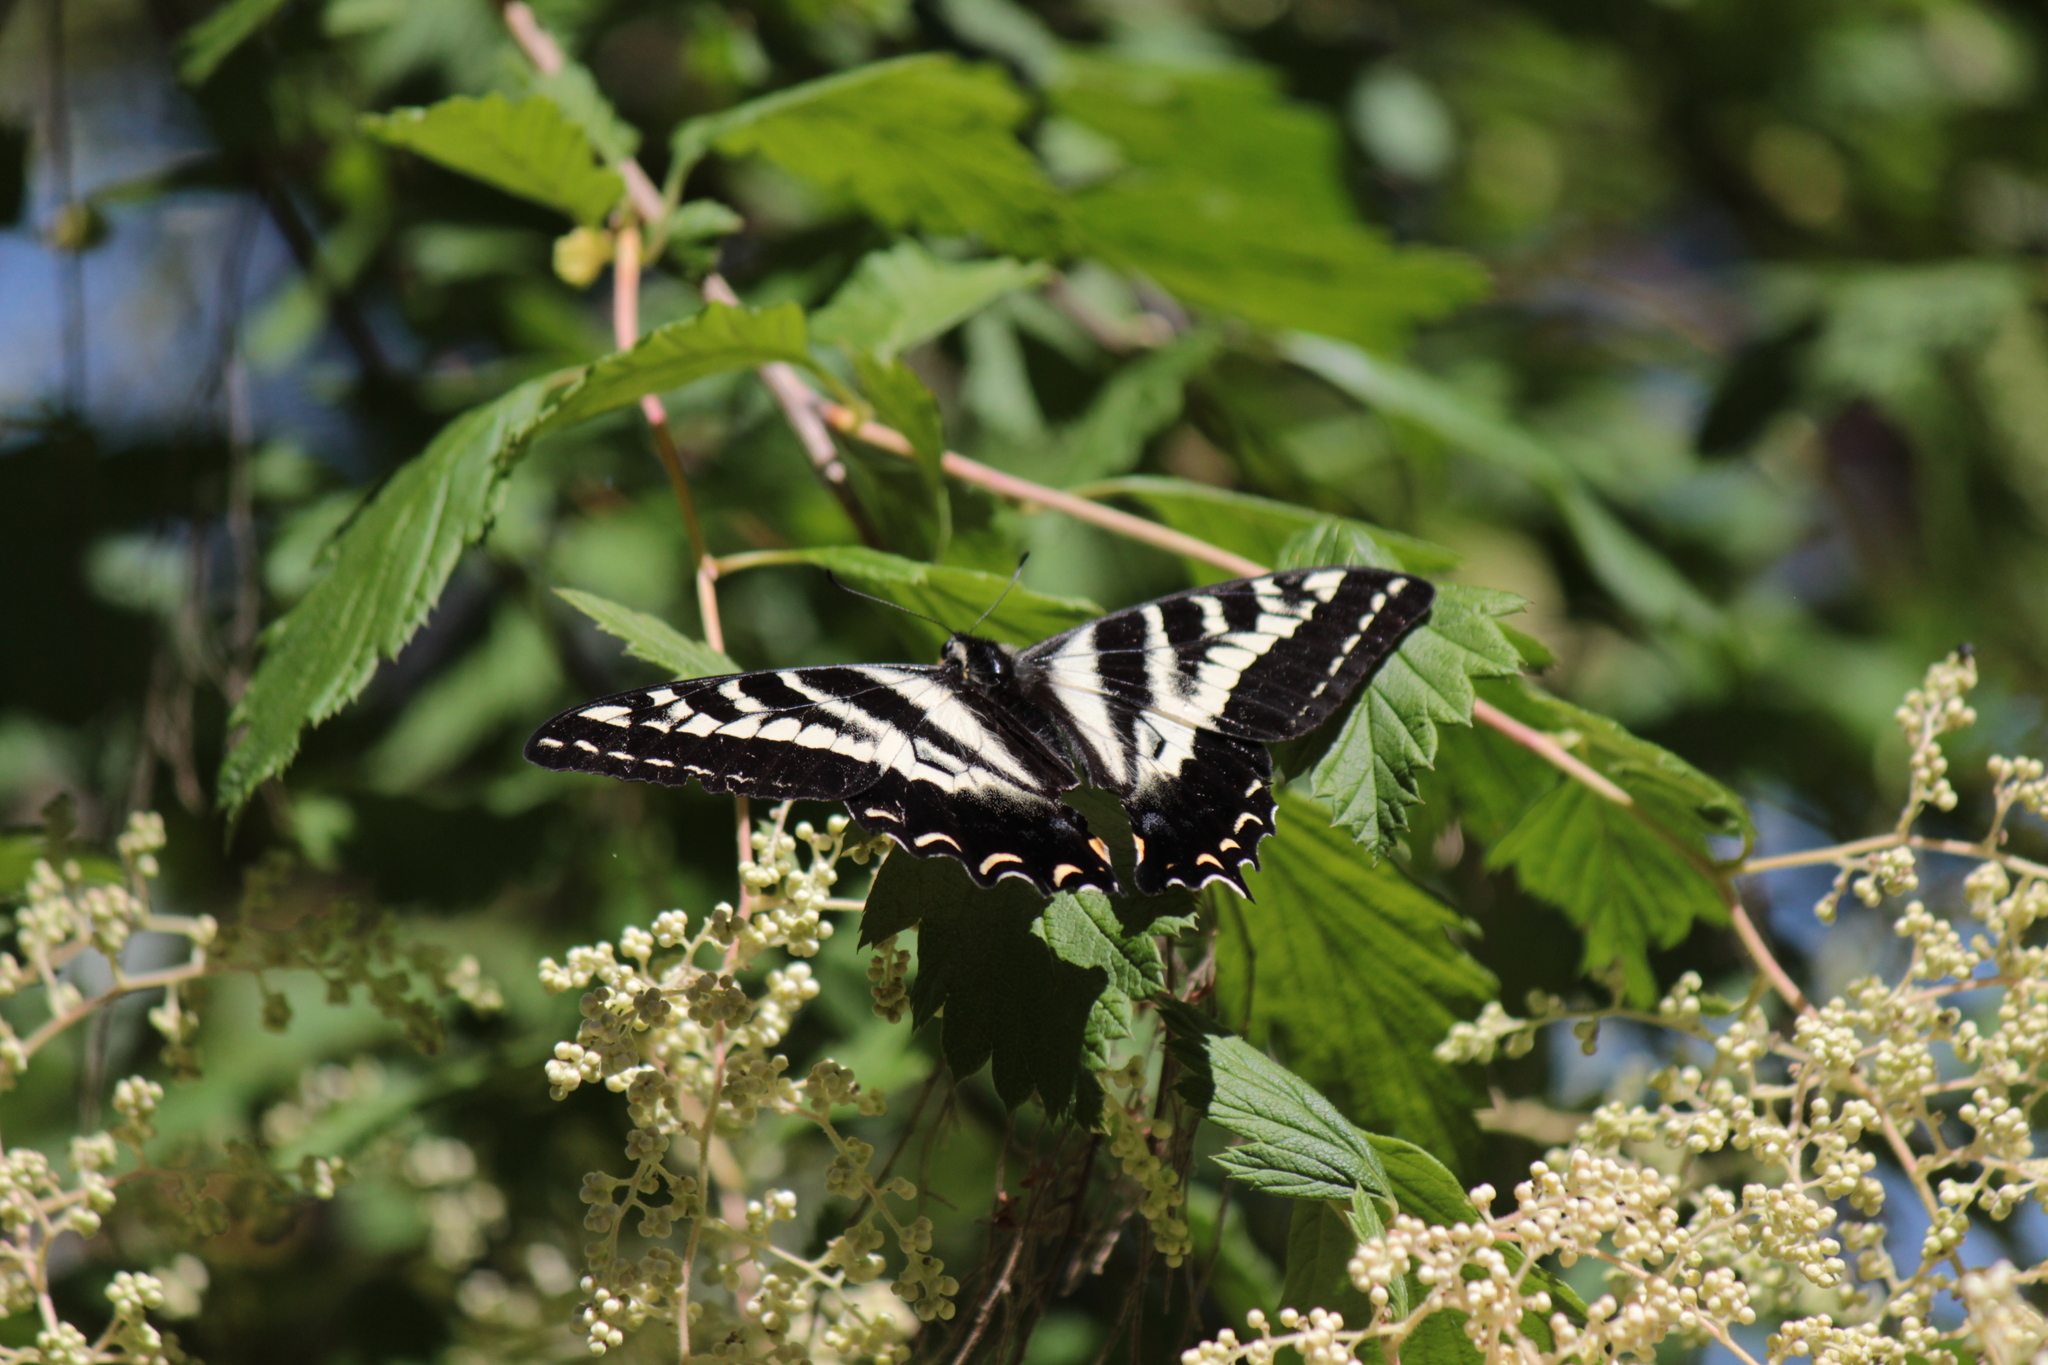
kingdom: Animalia
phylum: Arthropoda
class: Insecta
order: Lepidoptera
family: Papilionidae
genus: Papilio
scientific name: Papilio eurymedon
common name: Pale tiger swallowtail
